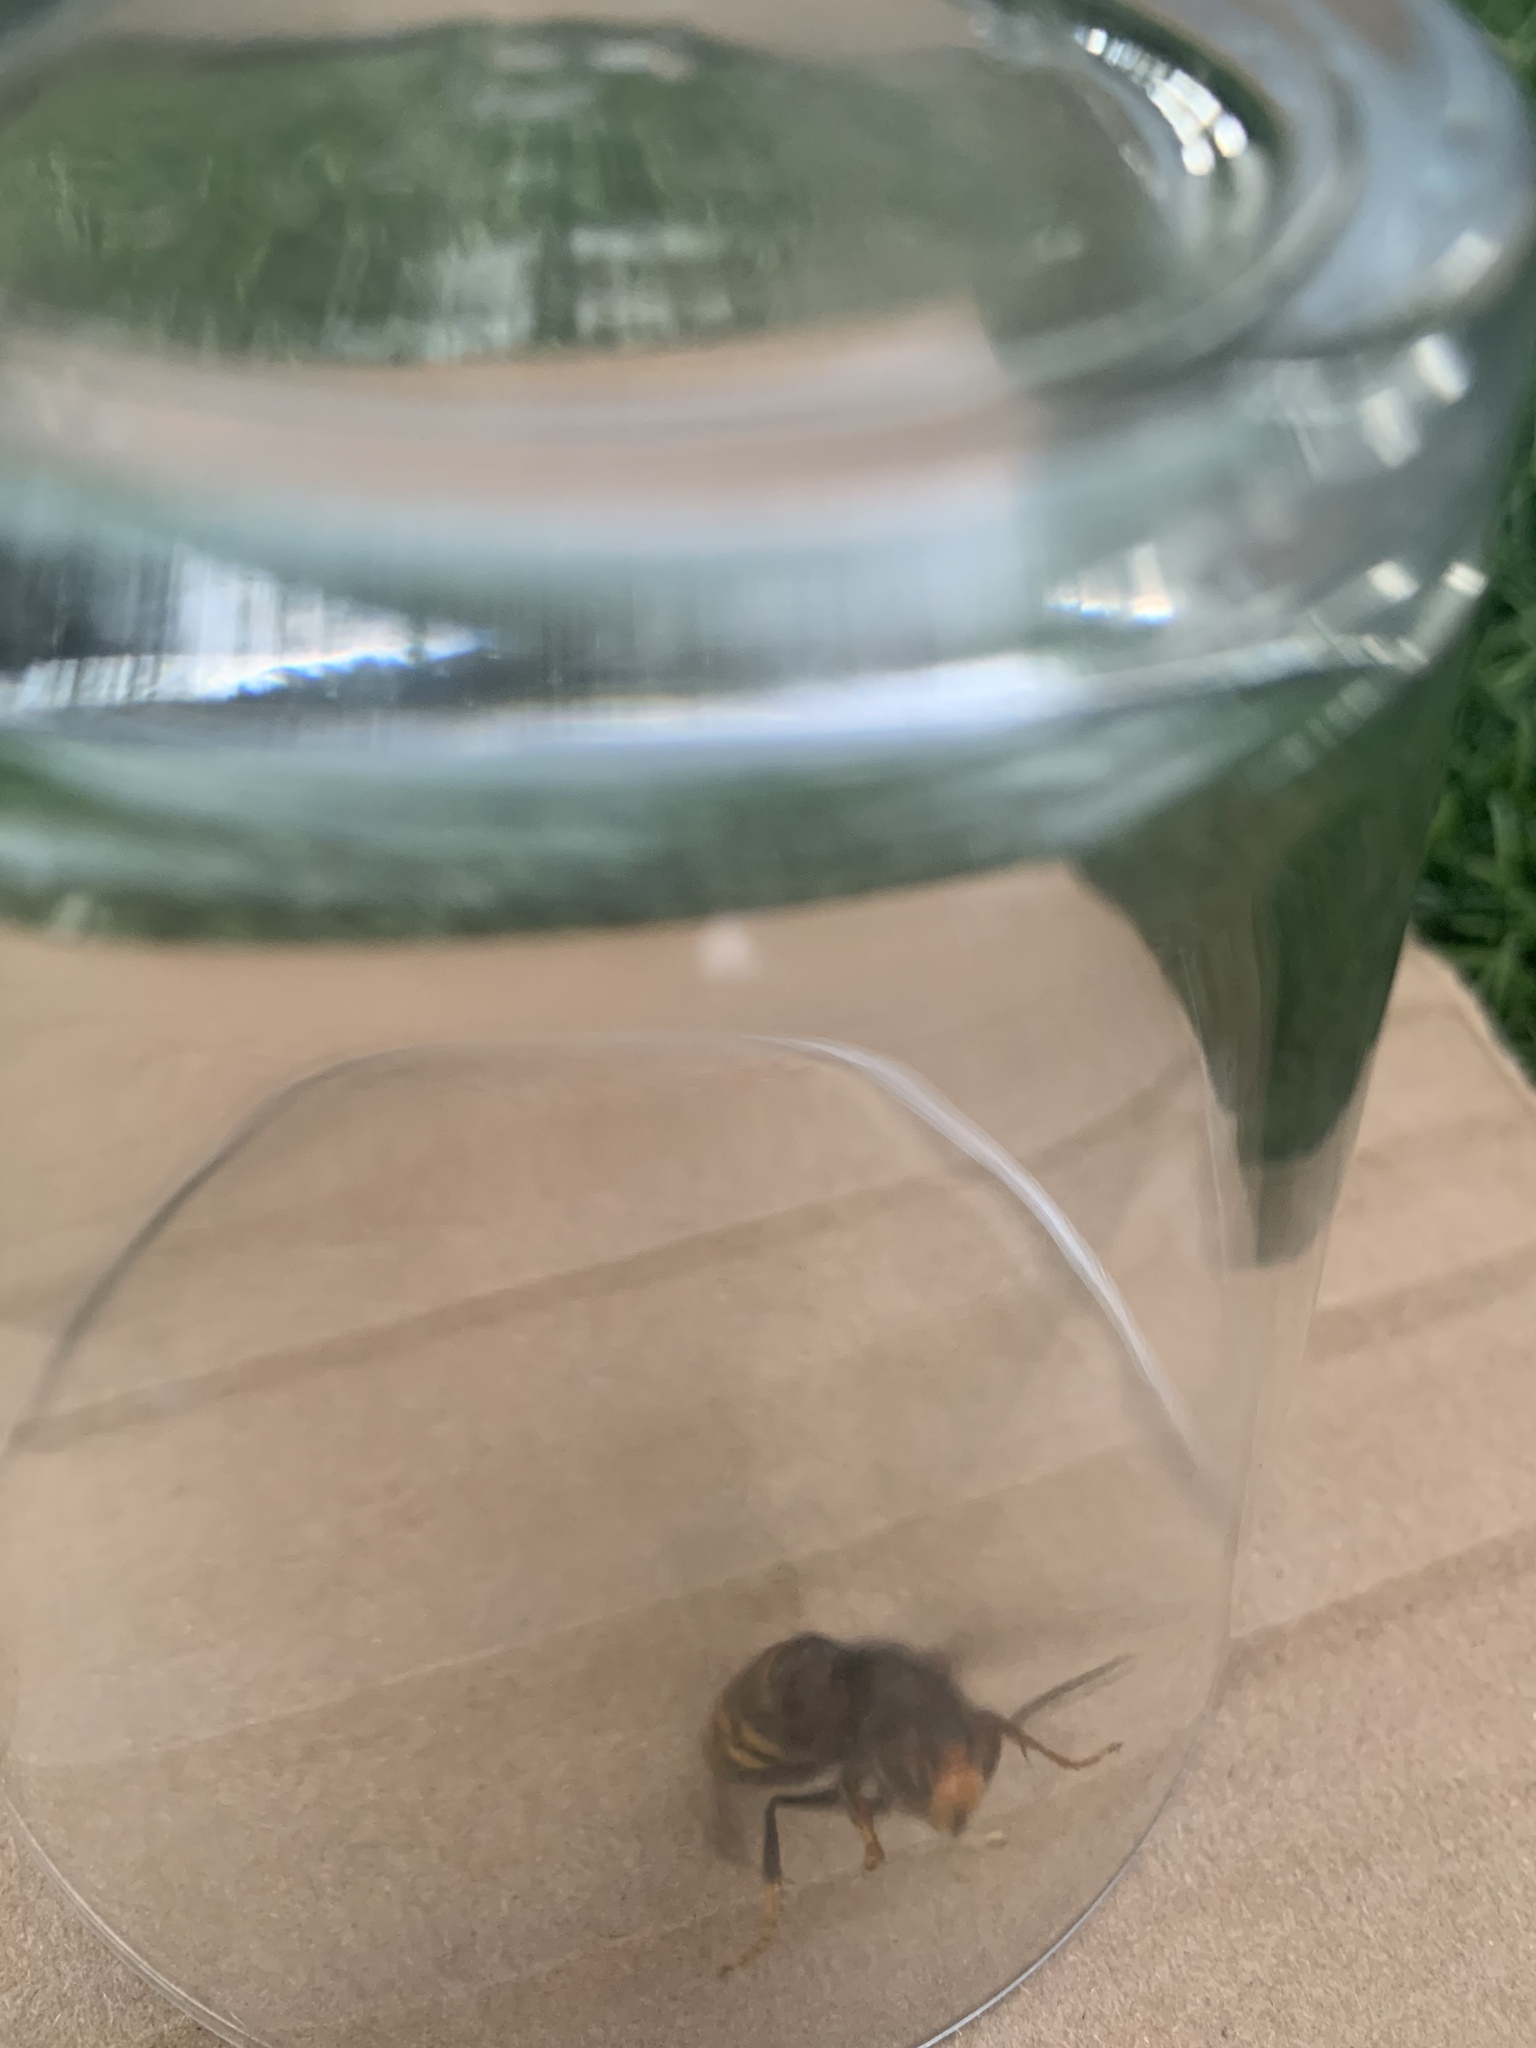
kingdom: Animalia
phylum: Arthropoda
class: Insecta
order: Hymenoptera
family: Vespidae
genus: Vespa
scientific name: Vespa velutina
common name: Asian hornet
